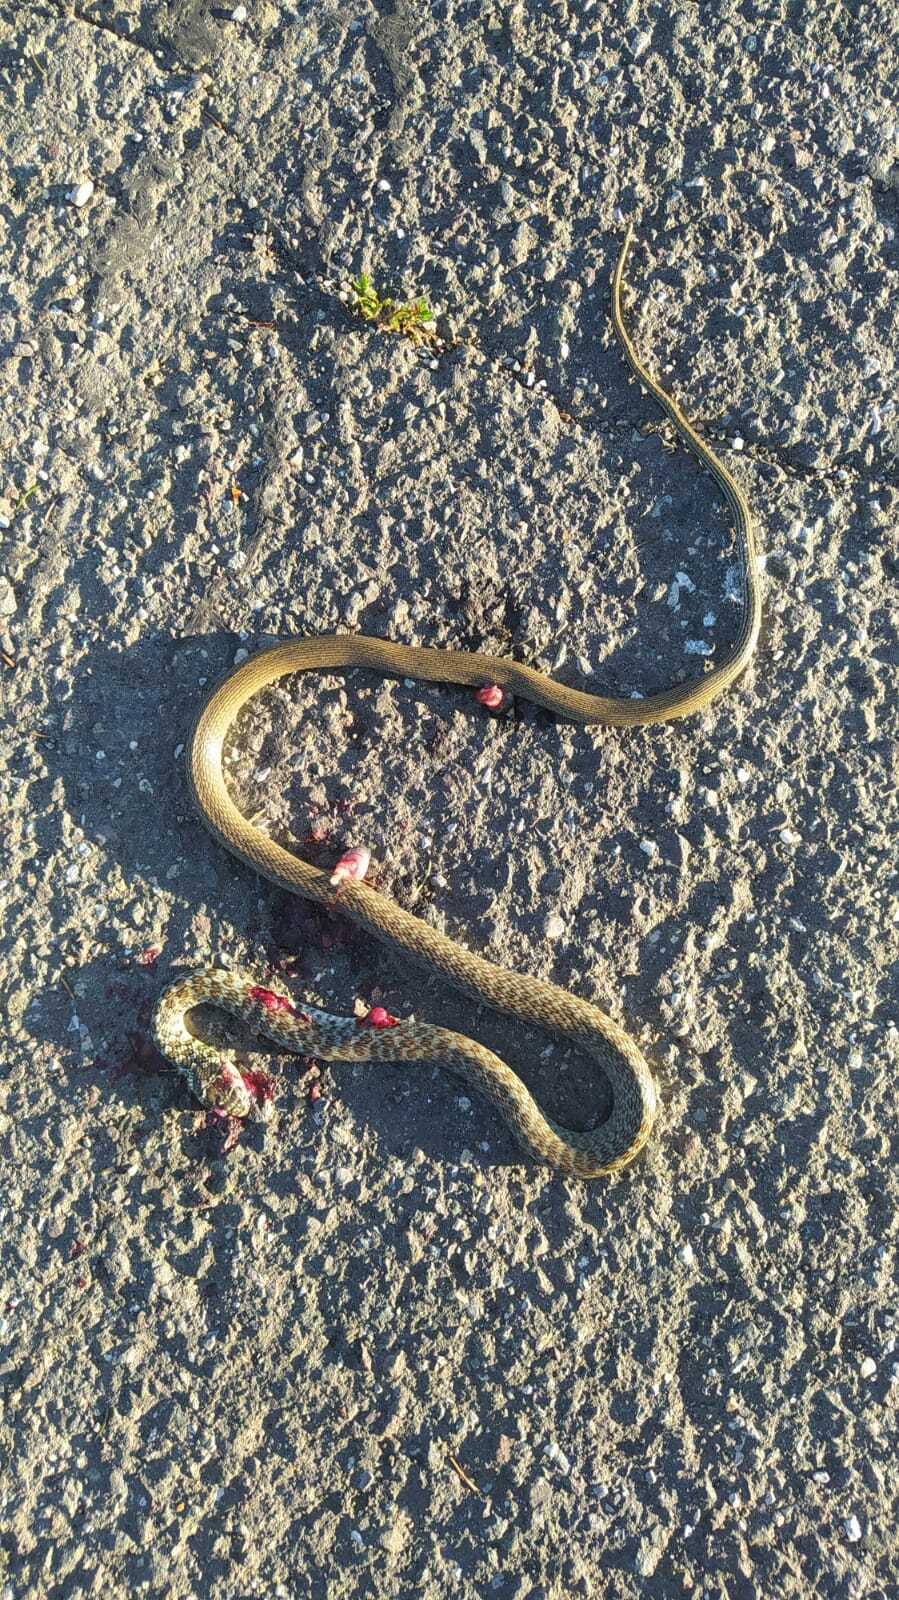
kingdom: Animalia
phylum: Chordata
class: Squamata
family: Colubridae
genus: Hierophis
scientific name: Hierophis viridiflavus
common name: Green whip snake
